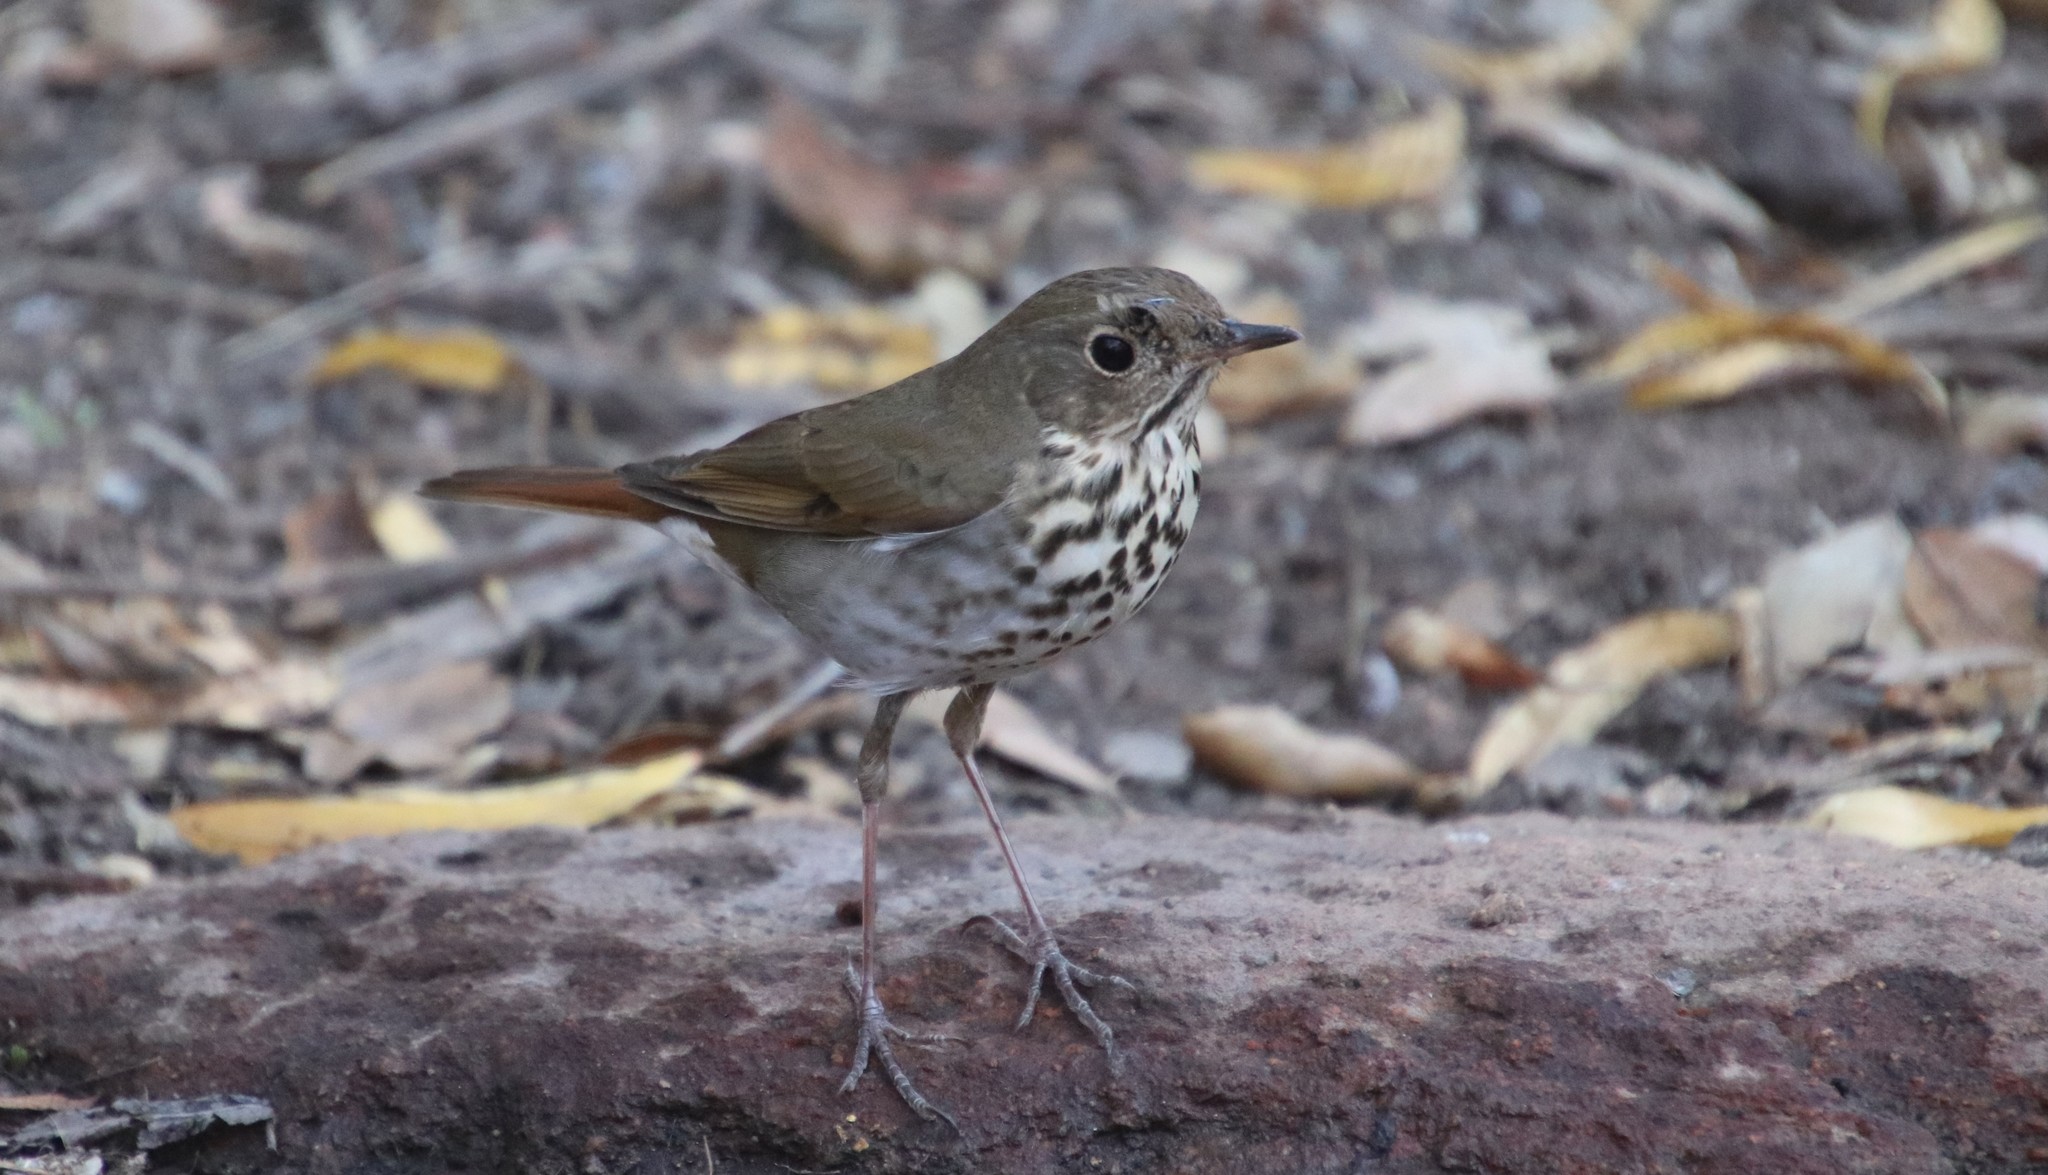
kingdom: Animalia
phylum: Chordata
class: Aves
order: Passeriformes
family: Turdidae
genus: Catharus
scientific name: Catharus guttatus
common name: Hermit thrush
